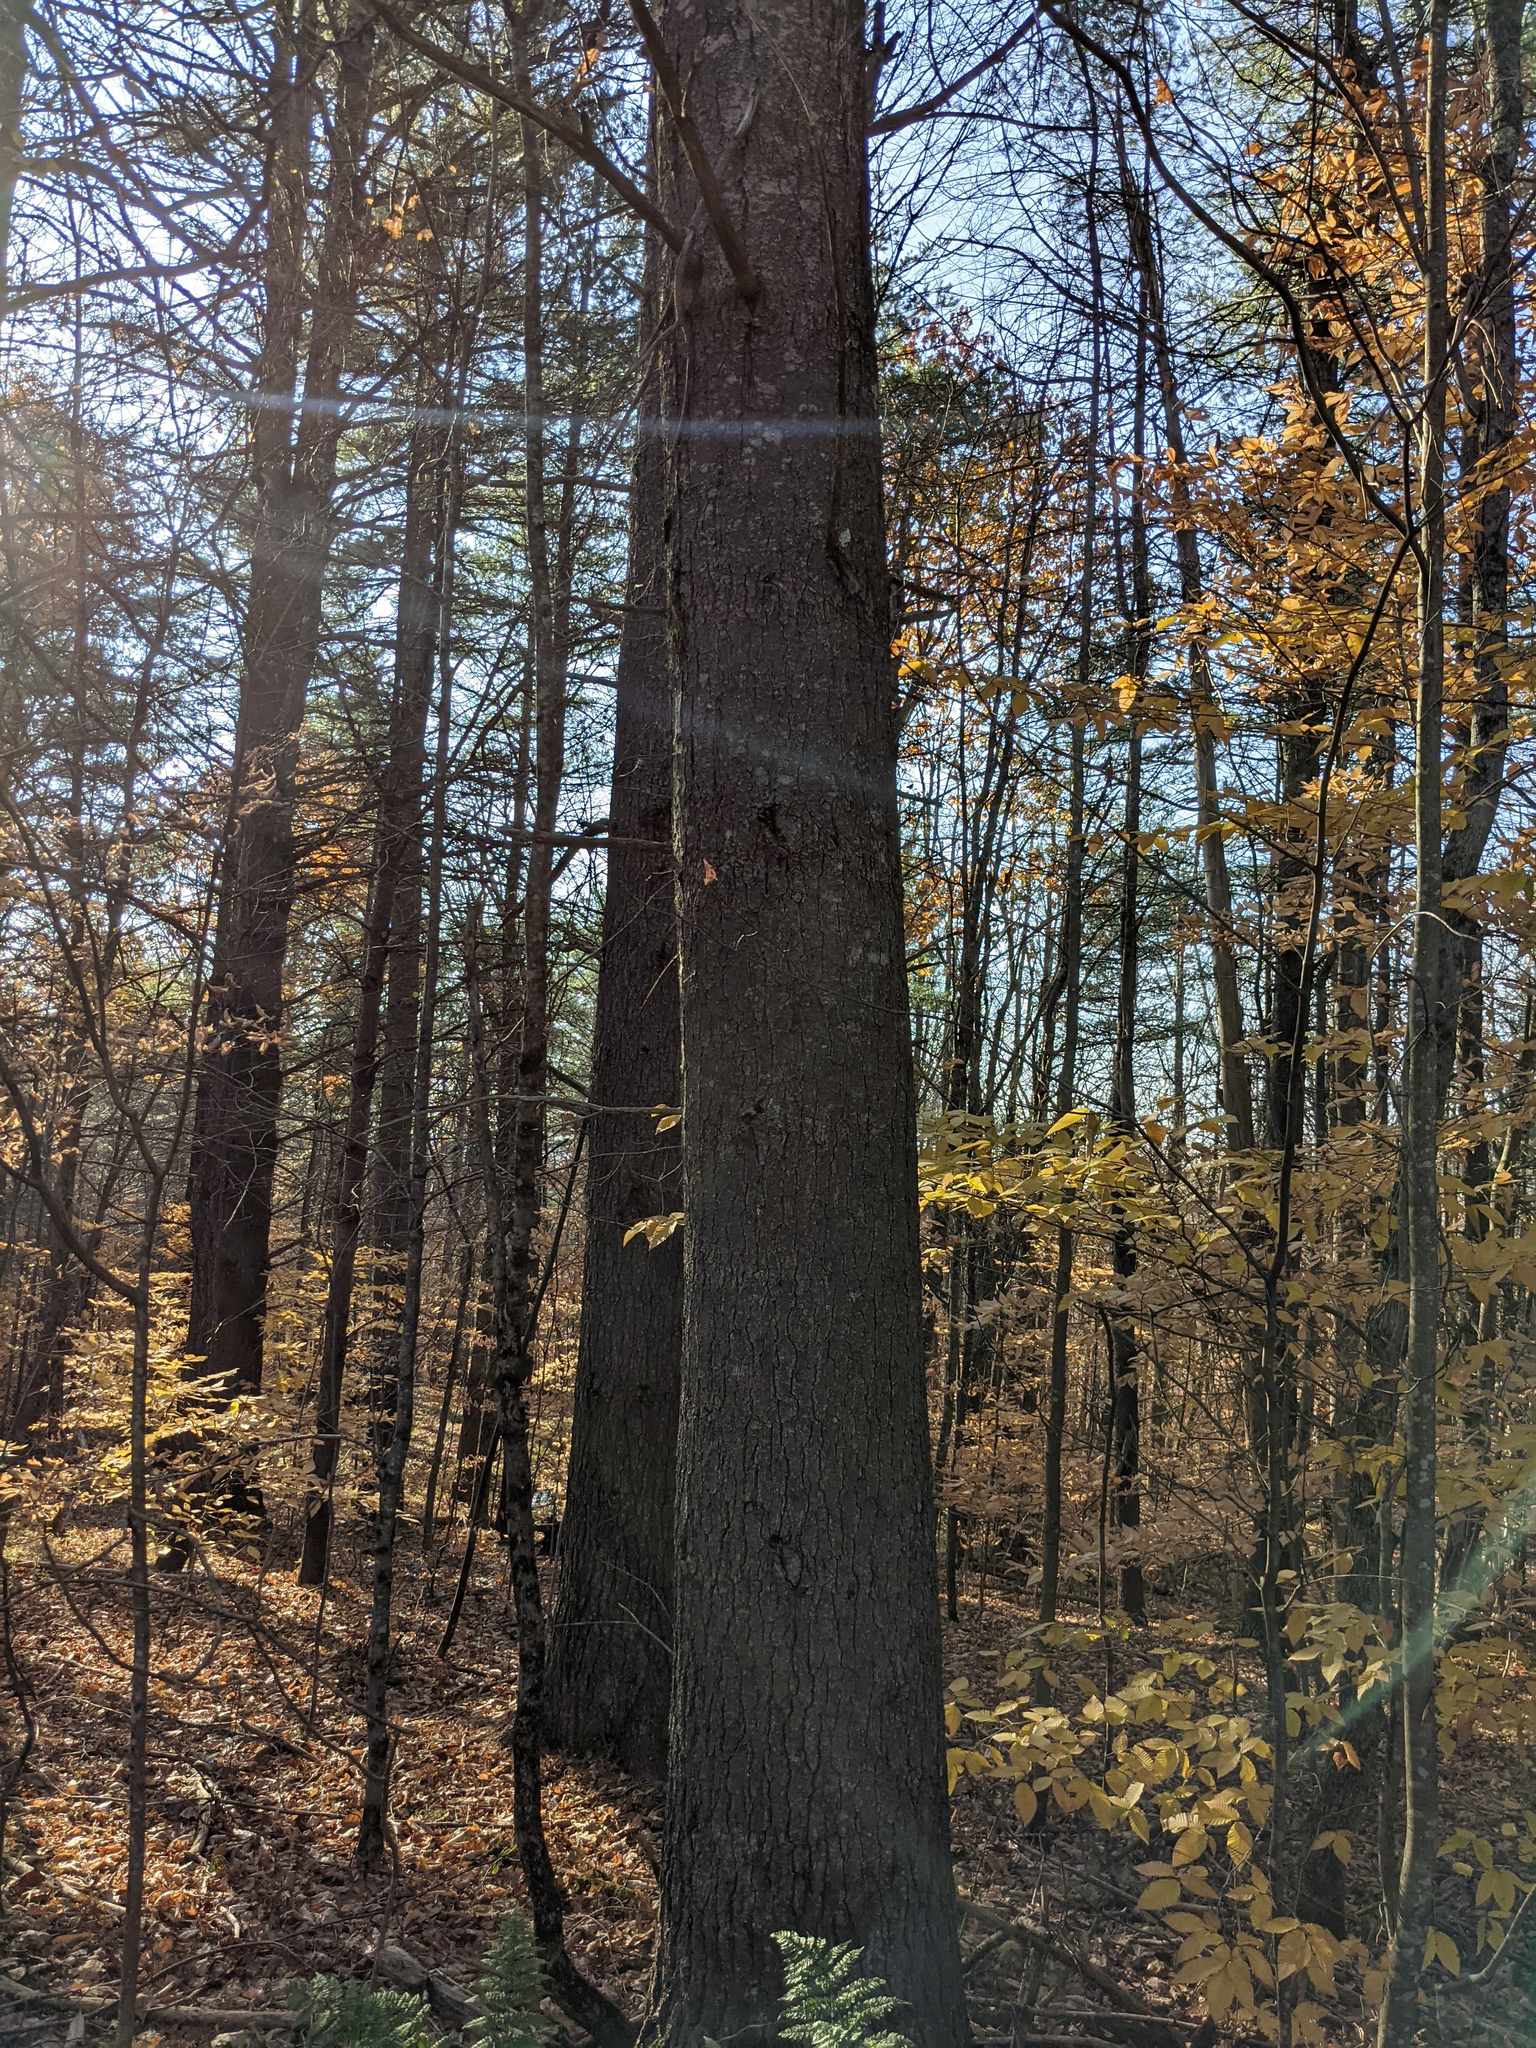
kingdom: Plantae
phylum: Tracheophyta
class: Pinopsida
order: Pinales
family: Pinaceae
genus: Pinus
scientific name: Pinus strobus
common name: Weymouth pine
